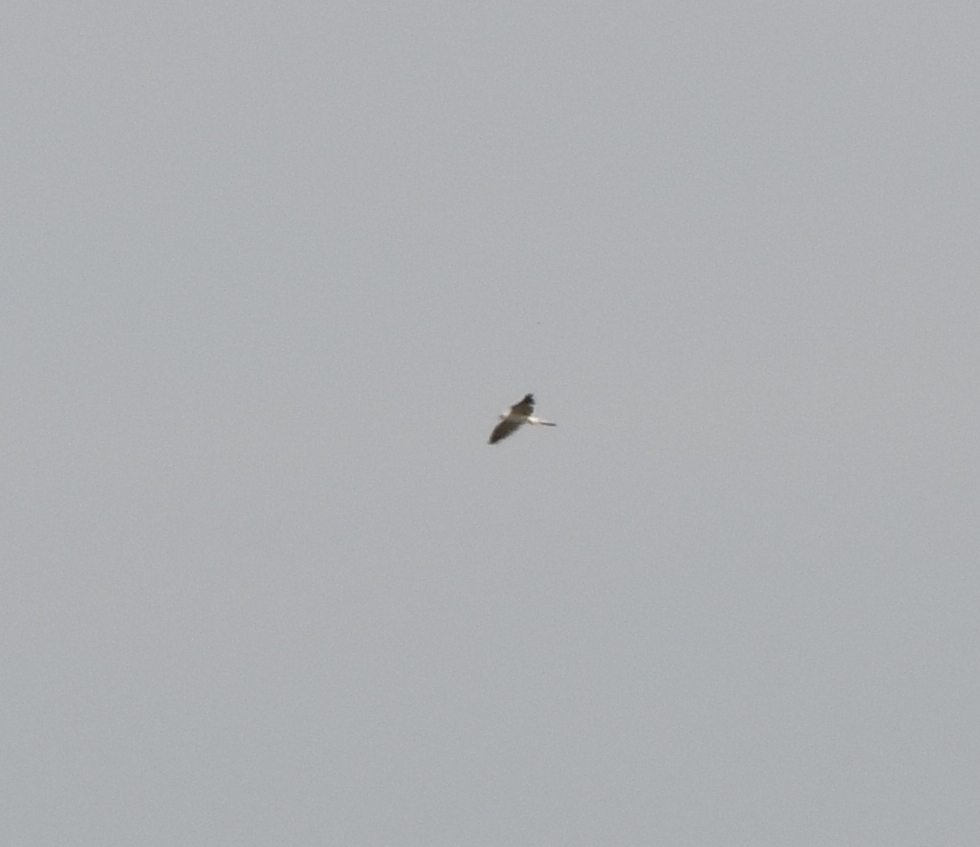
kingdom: Animalia
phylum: Chordata
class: Aves
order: Accipitriformes
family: Accipitridae
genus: Elanus
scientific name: Elanus leucurus
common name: White-tailed kite
